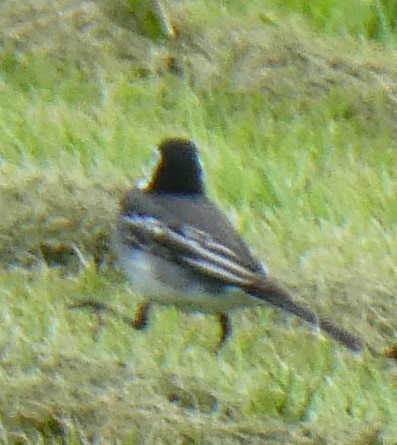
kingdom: Animalia
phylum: Chordata
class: Aves
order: Passeriformes
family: Motacillidae
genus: Motacilla
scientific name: Motacilla alba
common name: White wagtail
